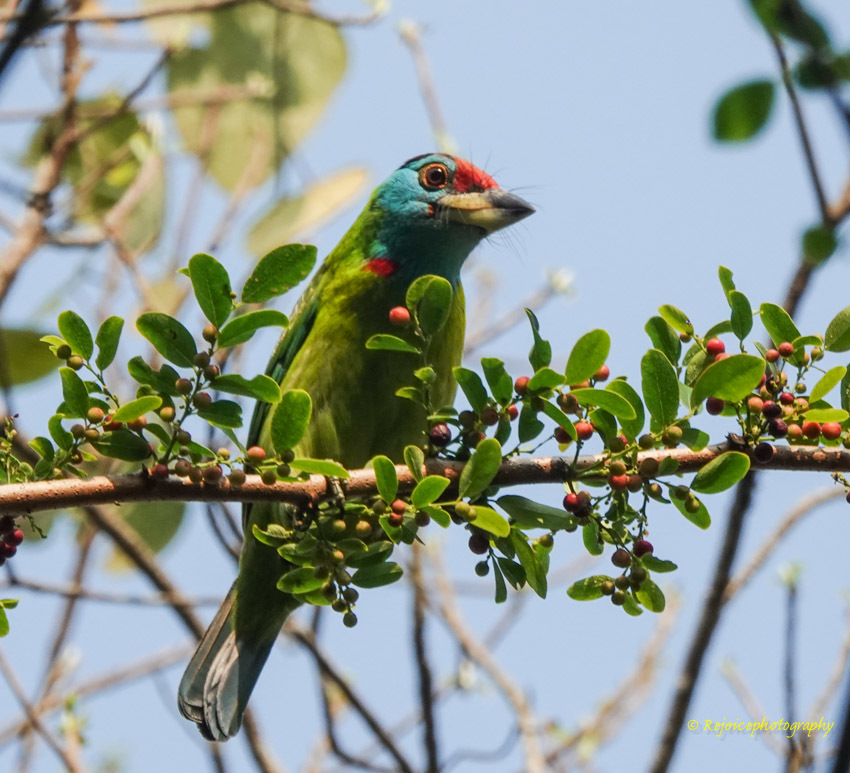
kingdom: Animalia
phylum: Chordata
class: Aves
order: Piciformes
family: Megalaimidae
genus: Psilopogon
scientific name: Psilopogon asiaticus
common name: Blue-throated barbet
